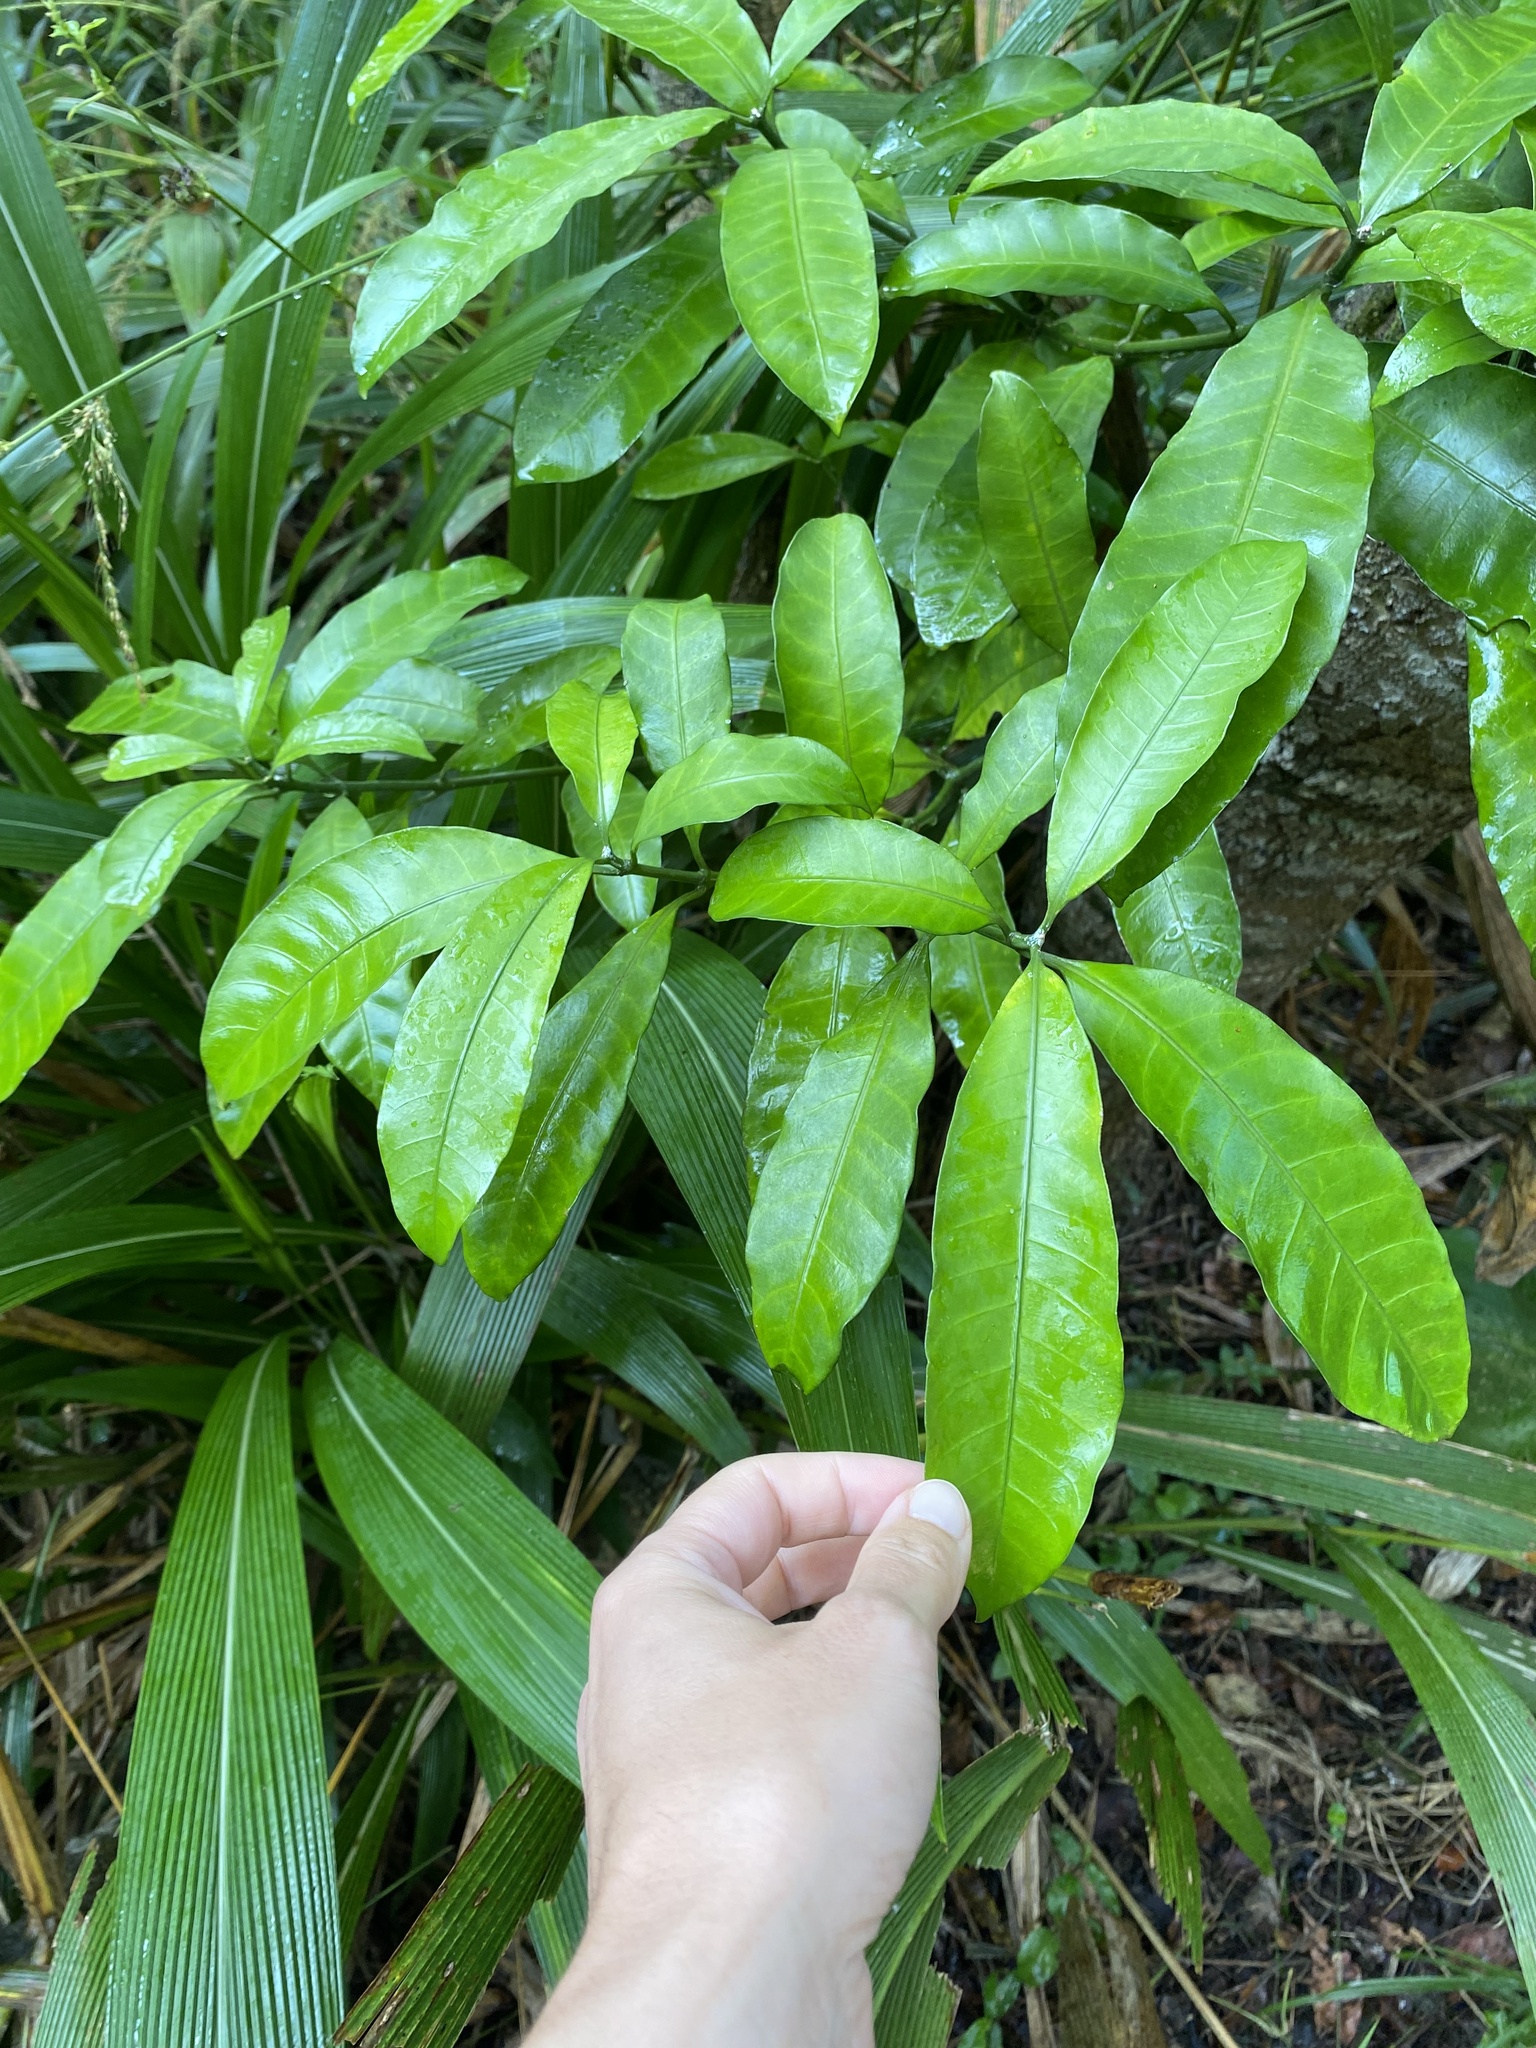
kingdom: Plantae
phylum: Tracheophyta
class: Magnoliopsida
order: Gentianales
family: Apocynaceae
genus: Tabernaemontana
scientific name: Tabernaemontana ventricosa
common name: Forest toad-tree
